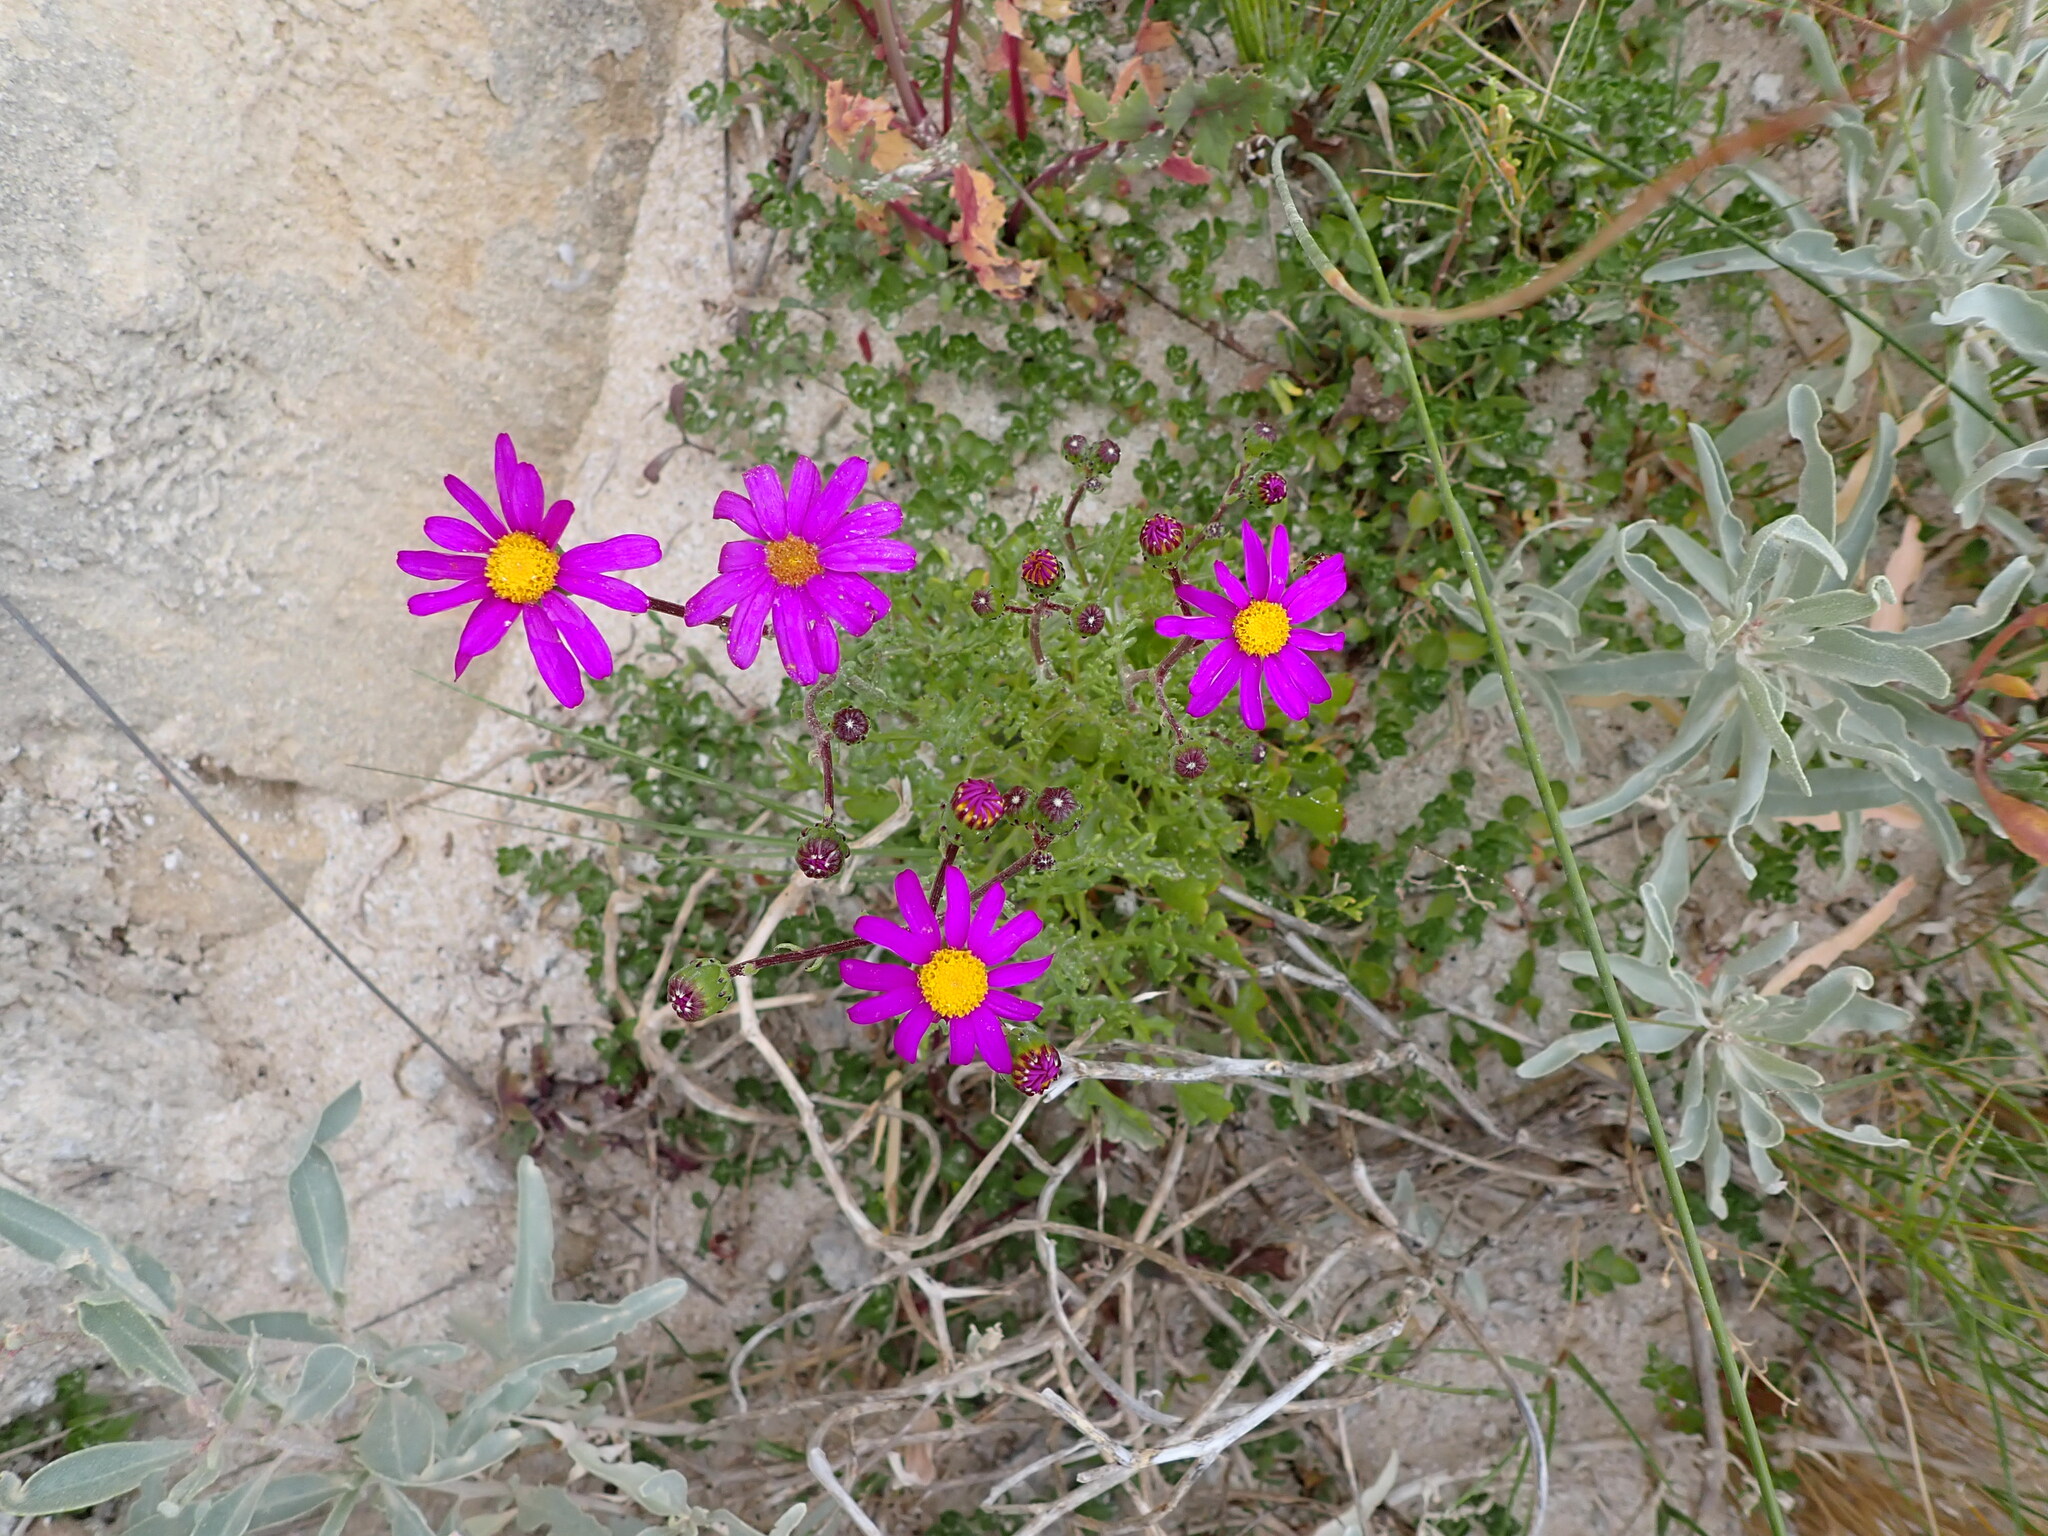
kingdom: Plantae
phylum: Tracheophyta
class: Magnoliopsida
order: Asterales
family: Asteraceae
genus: Senecio
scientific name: Senecio elegans
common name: Purple groundsel
